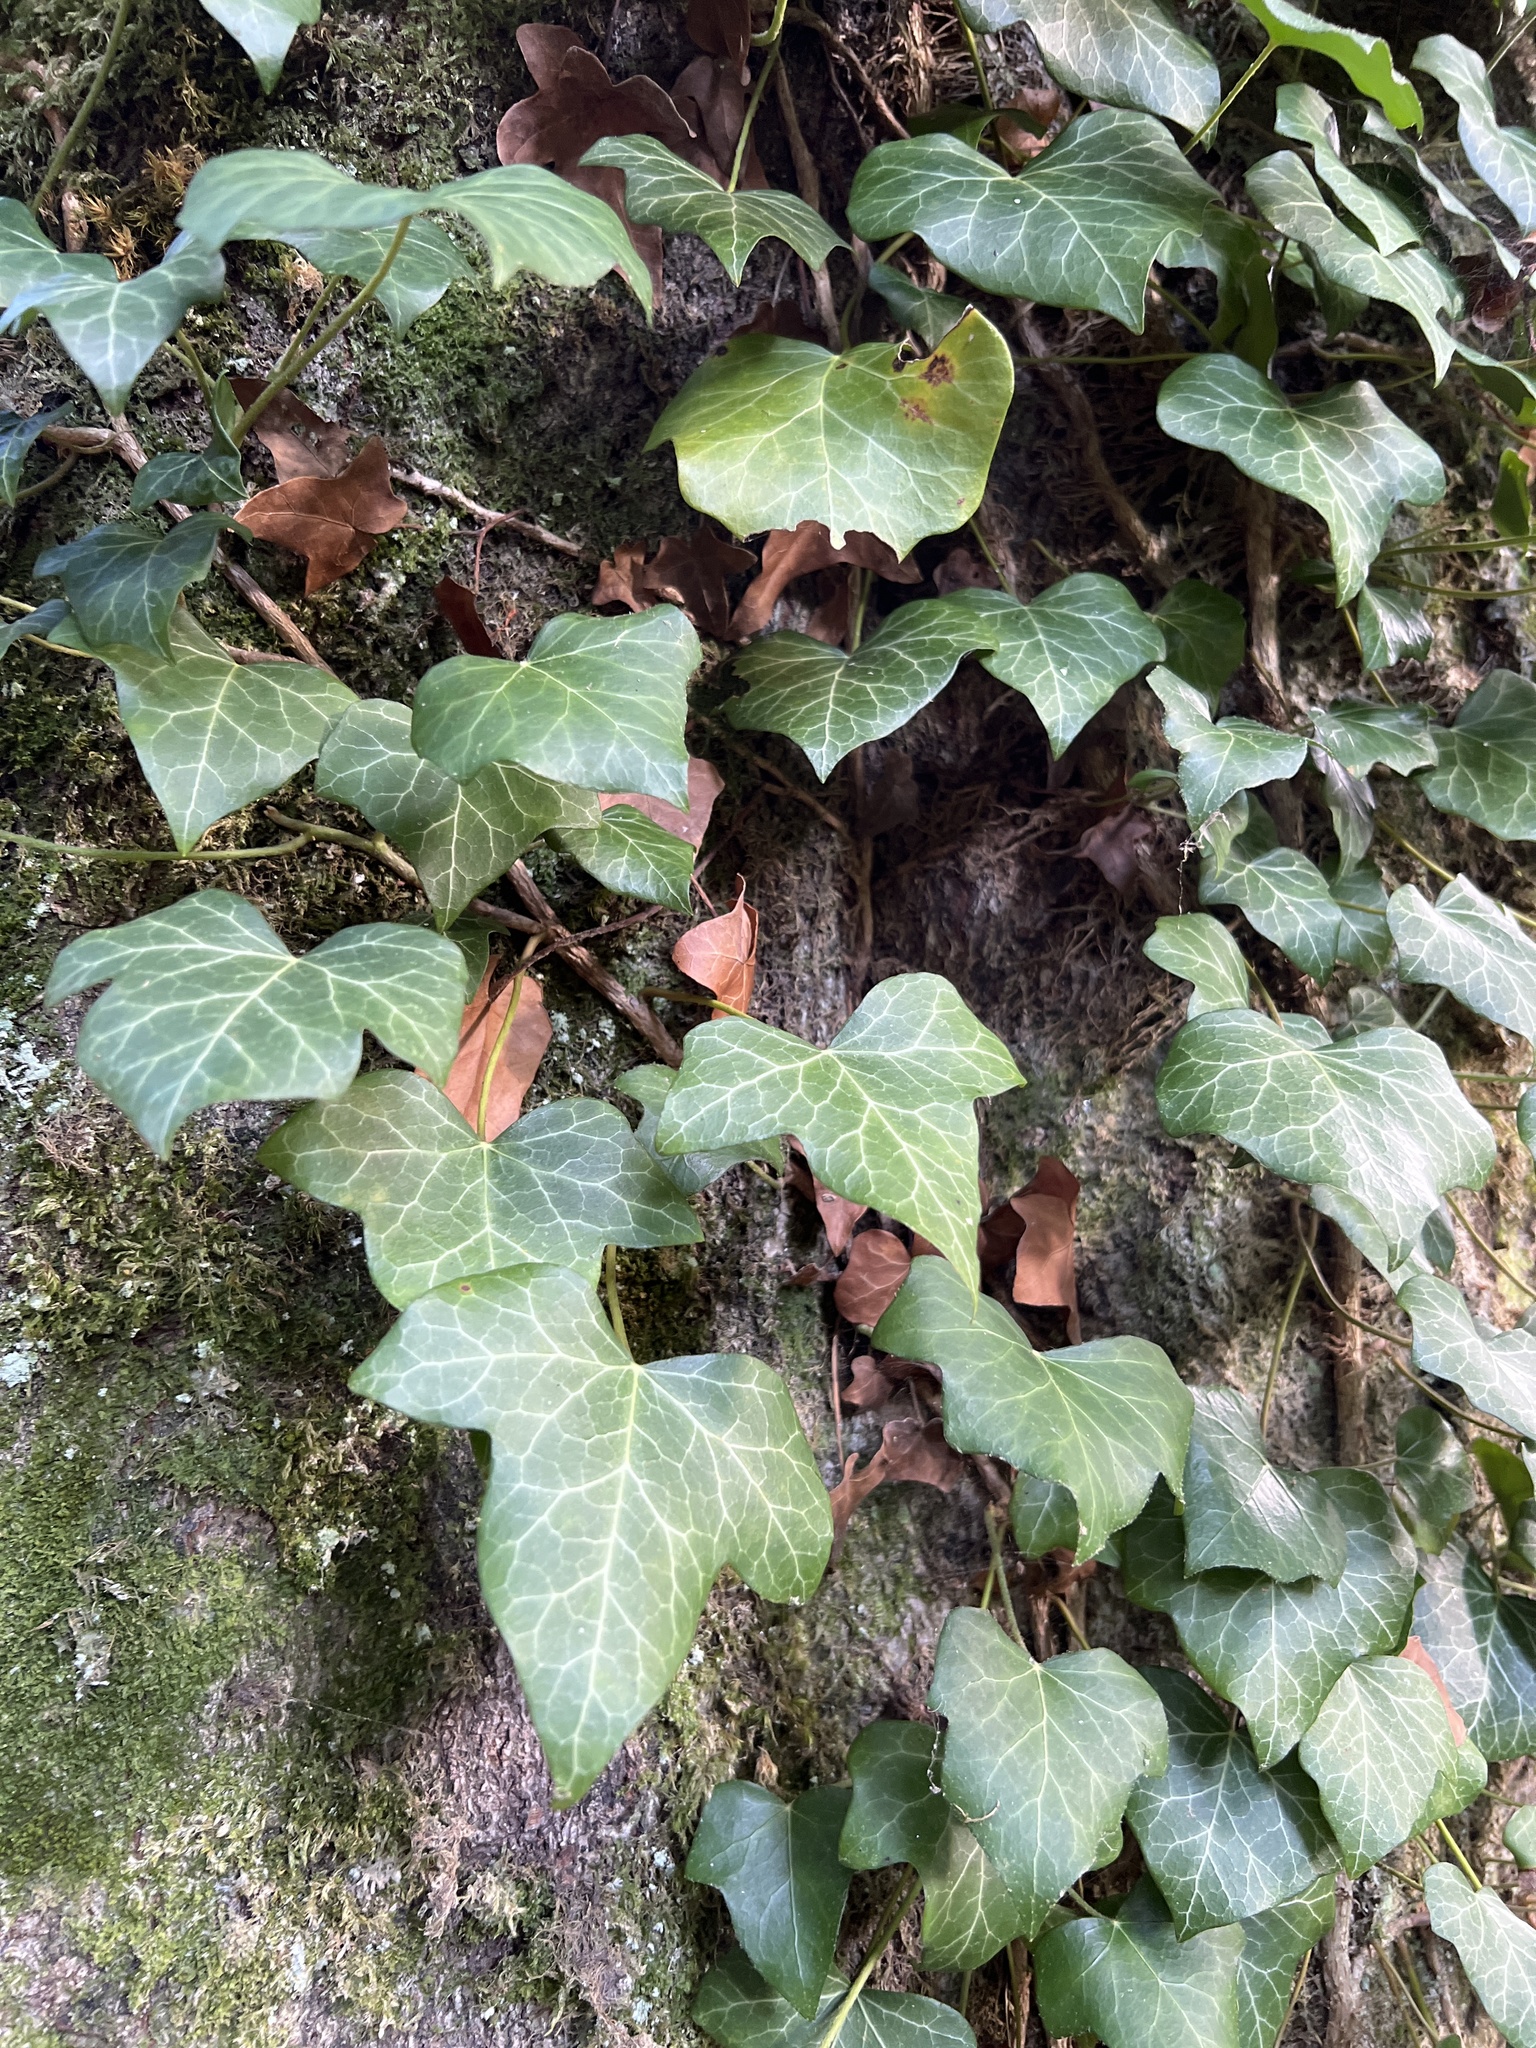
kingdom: Plantae
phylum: Tracheophyta
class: Magnoliopsida
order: Apiales
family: Araliaceae
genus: Hedera
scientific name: Hedera helix
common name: Ivy
